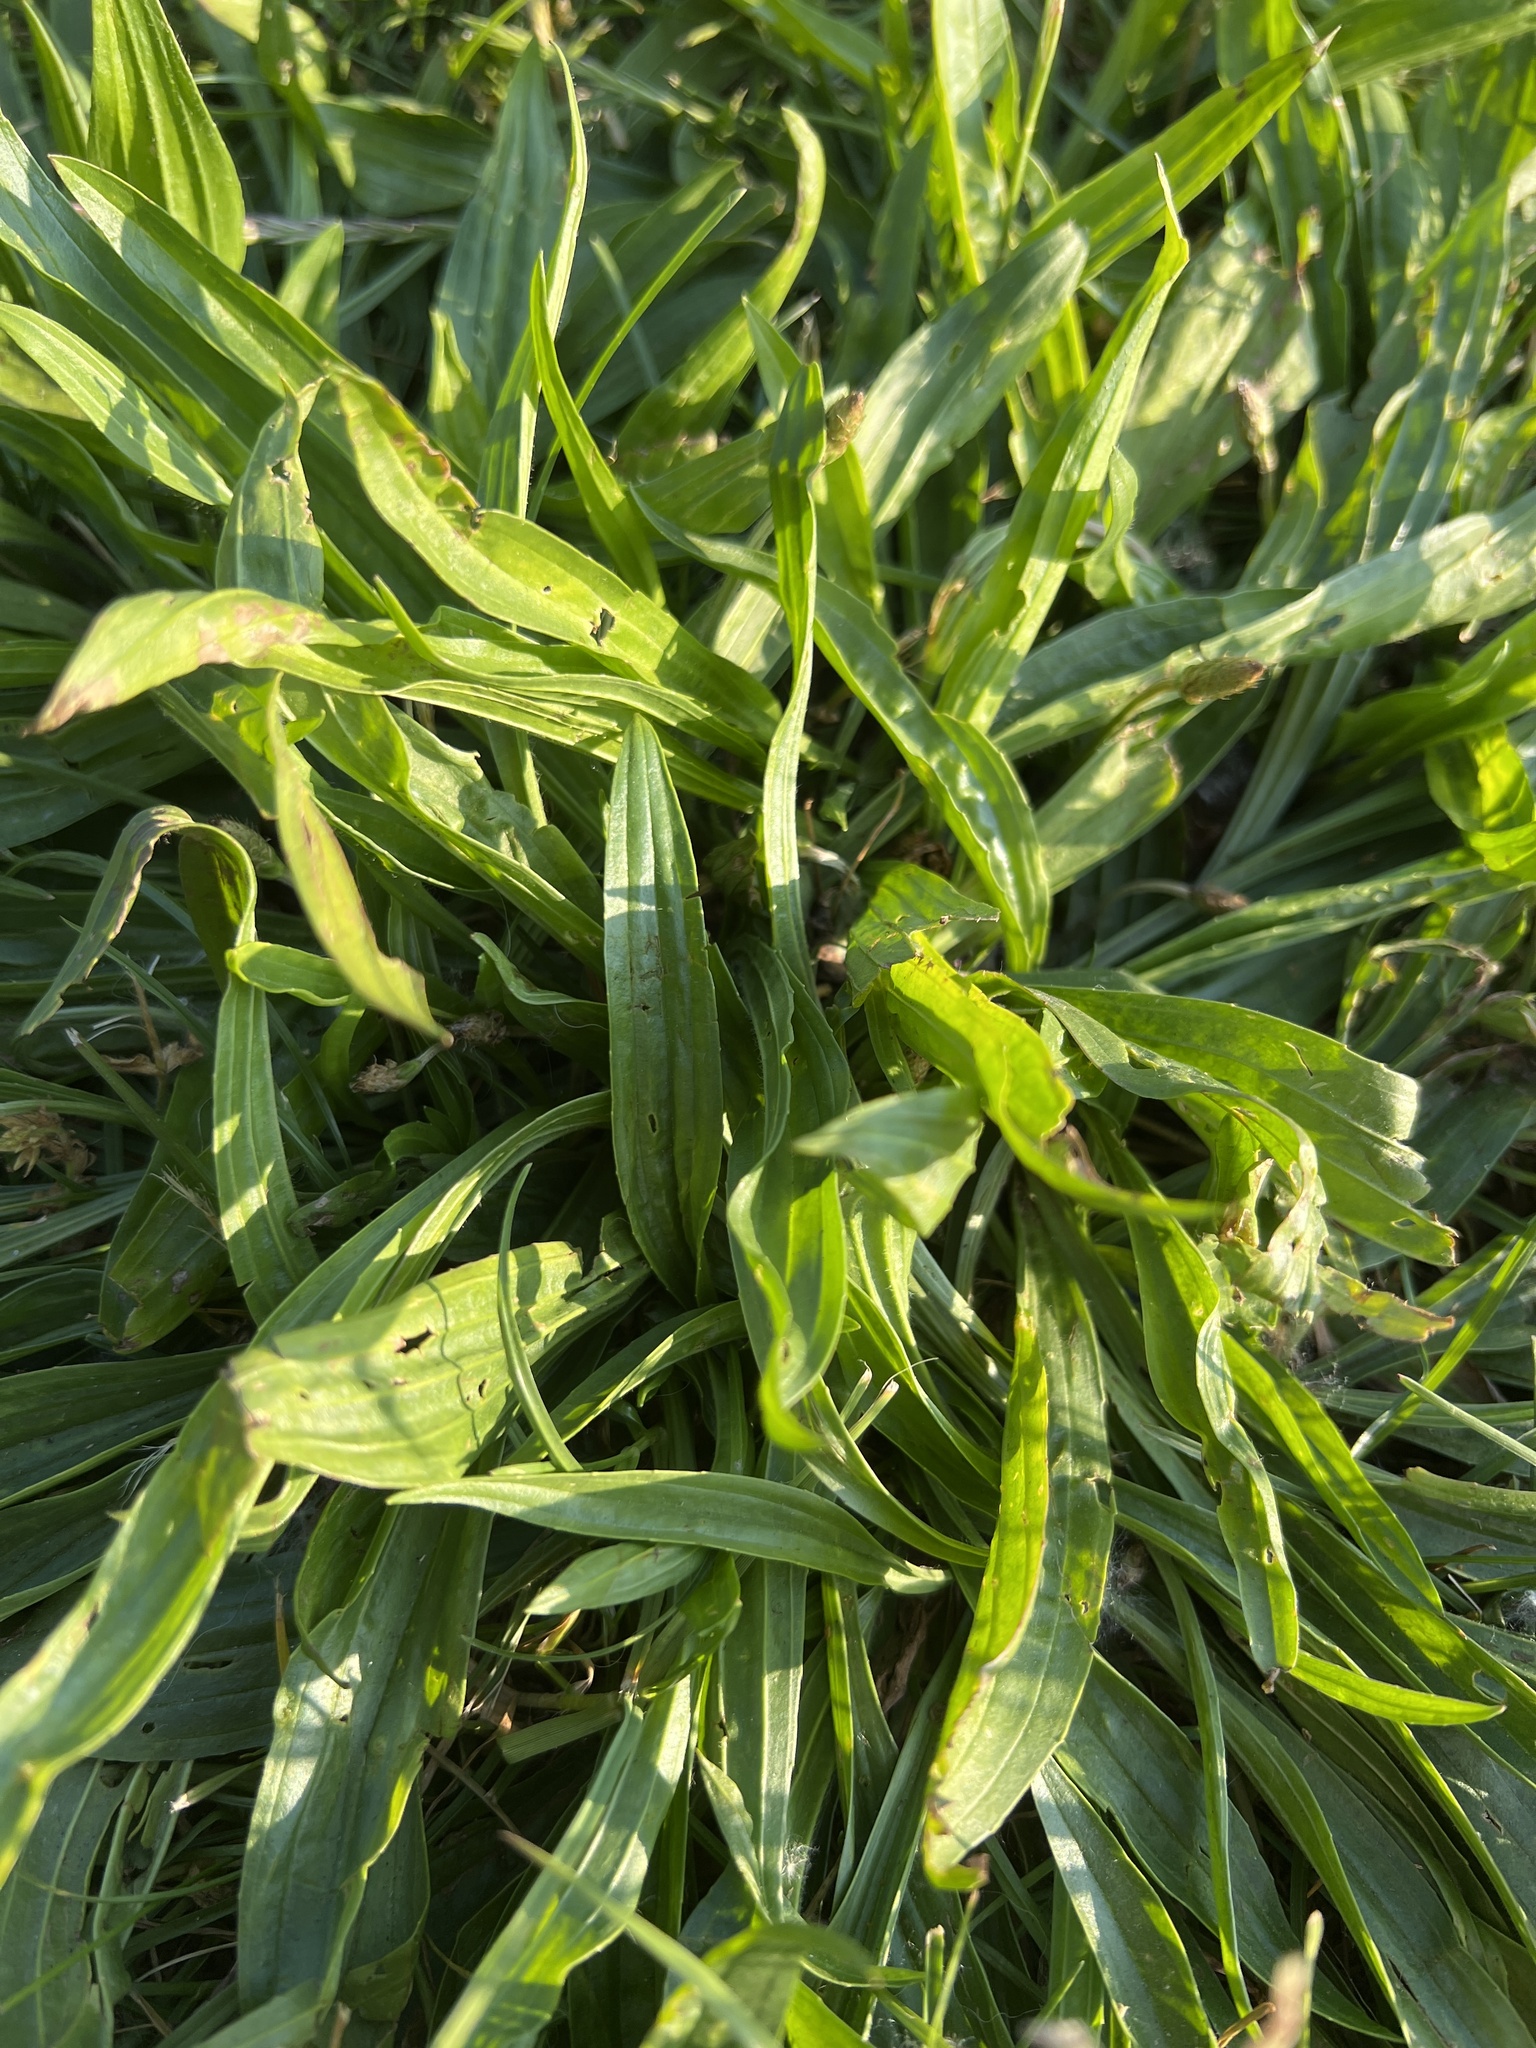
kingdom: Plantae
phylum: Tracheophyta
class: Magnoliopsida
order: Lamiales
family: Plantaginaceae
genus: Plantago
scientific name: Plantago lanceolata
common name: Ribwort plantain
